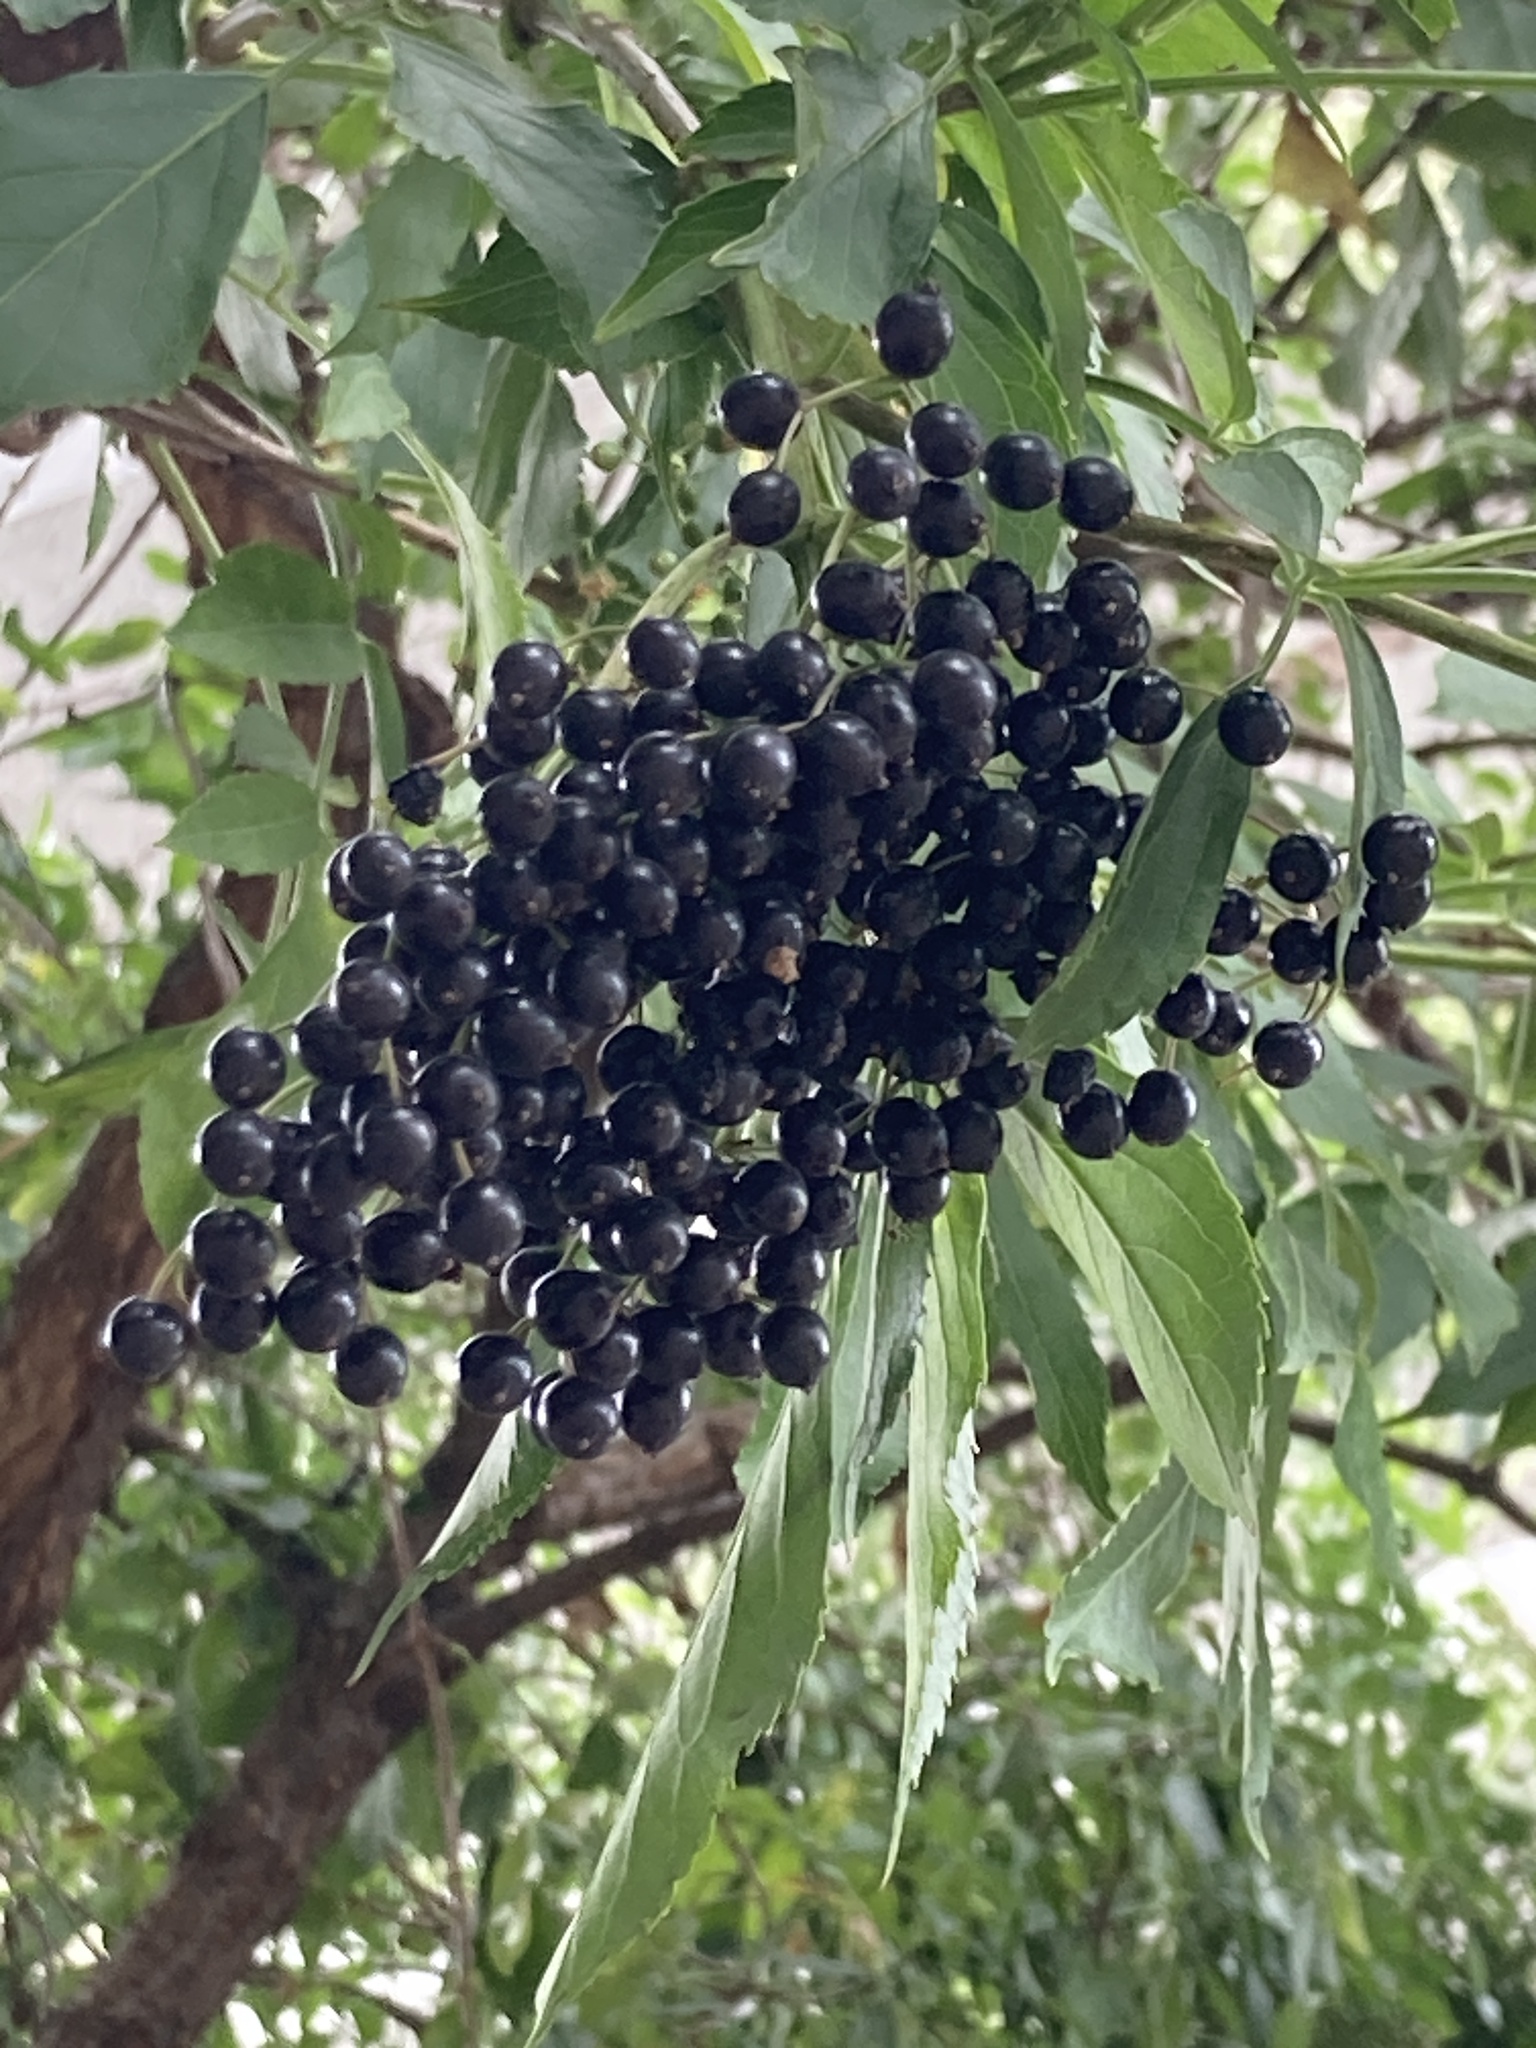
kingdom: Plantae
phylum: Tracheophyta
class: Magnoliopsida
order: Dipsacales
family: Viburnaceae
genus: Sambucus
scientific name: Sambucus nigra
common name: Elder
